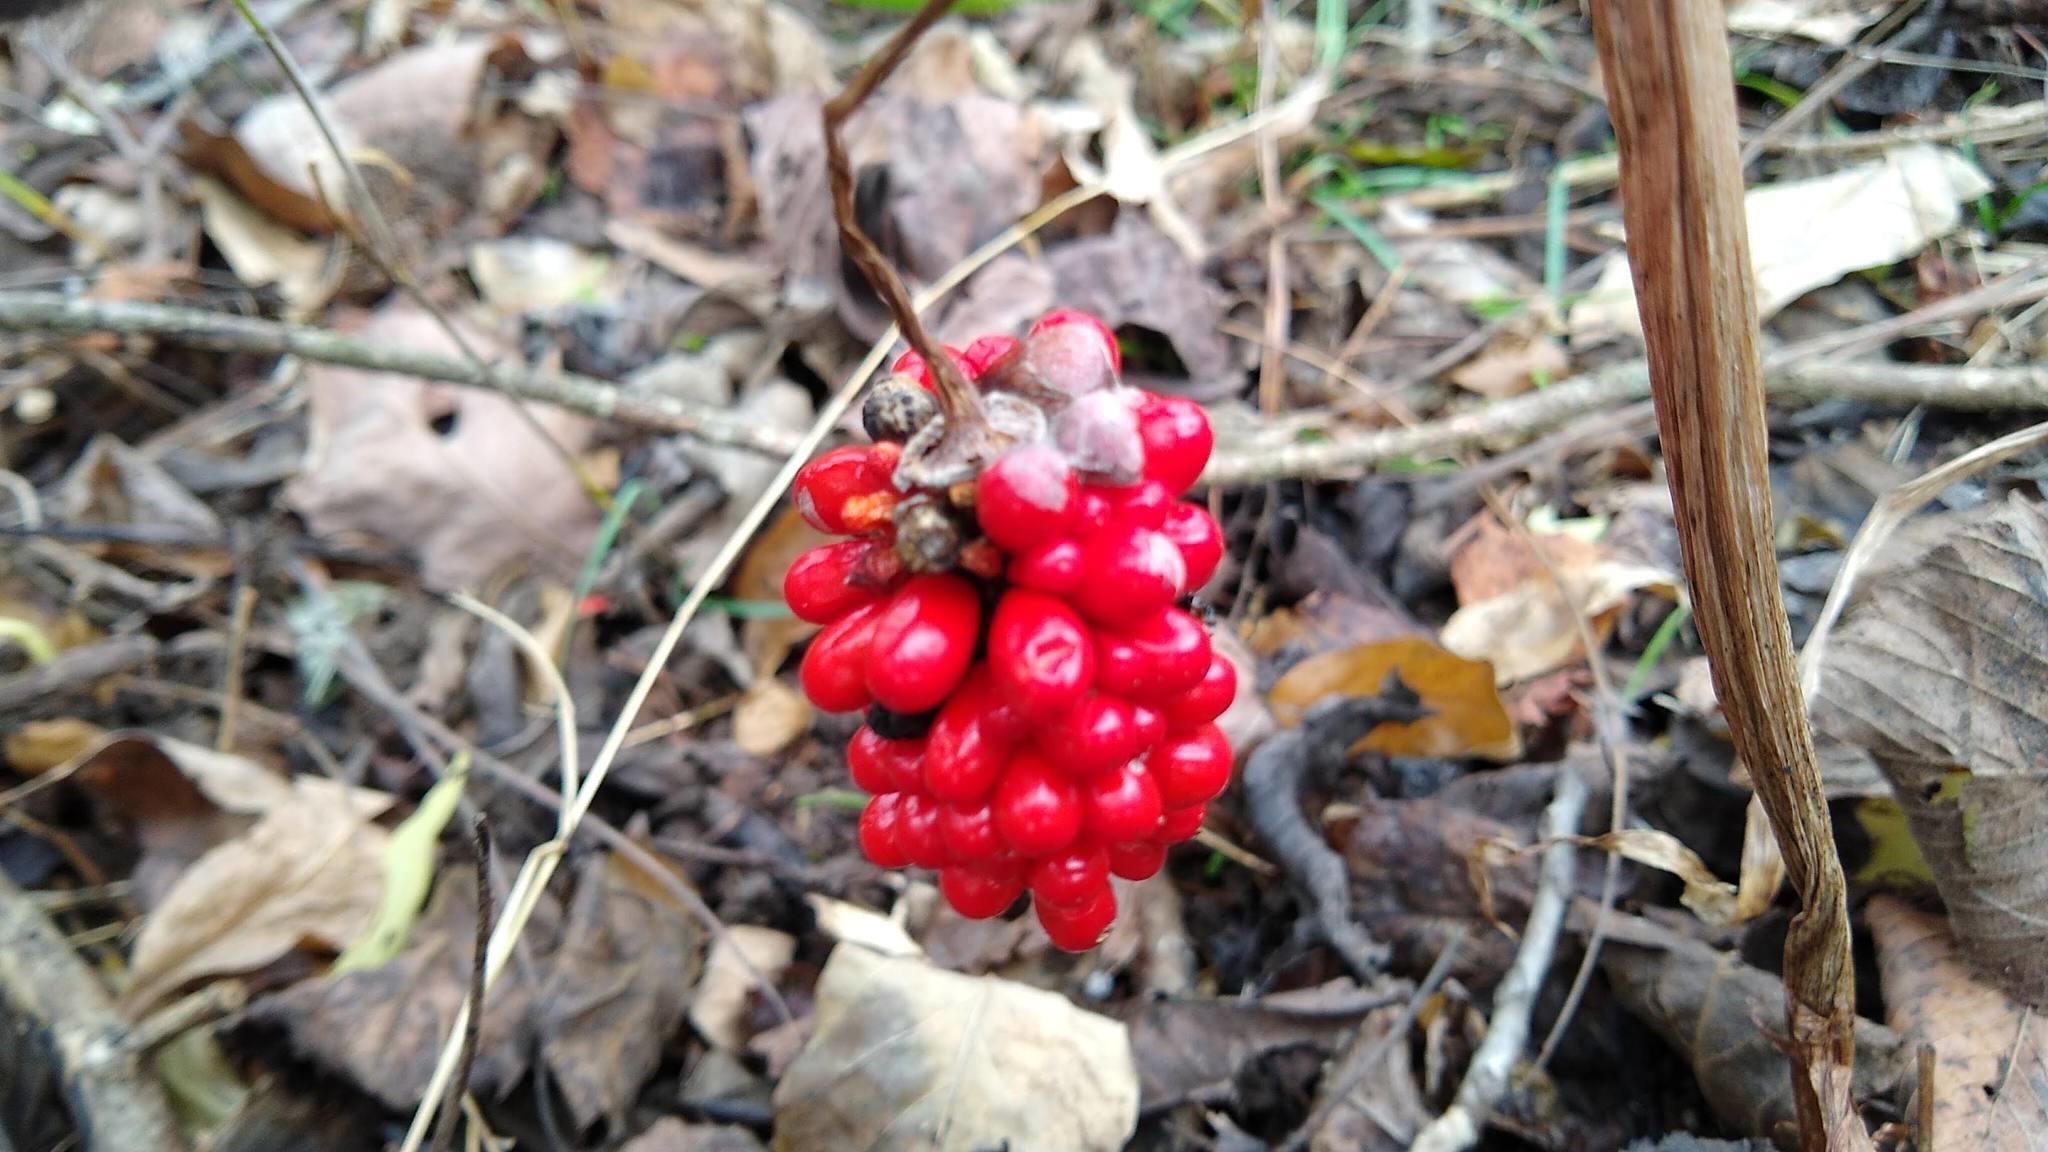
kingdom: Plantae
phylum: Tracheophyta
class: Liliopsida
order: Alismatales
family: Araceae
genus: Arisaema
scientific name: Arisaema triphyllum
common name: Jack-in-the-pulpit
